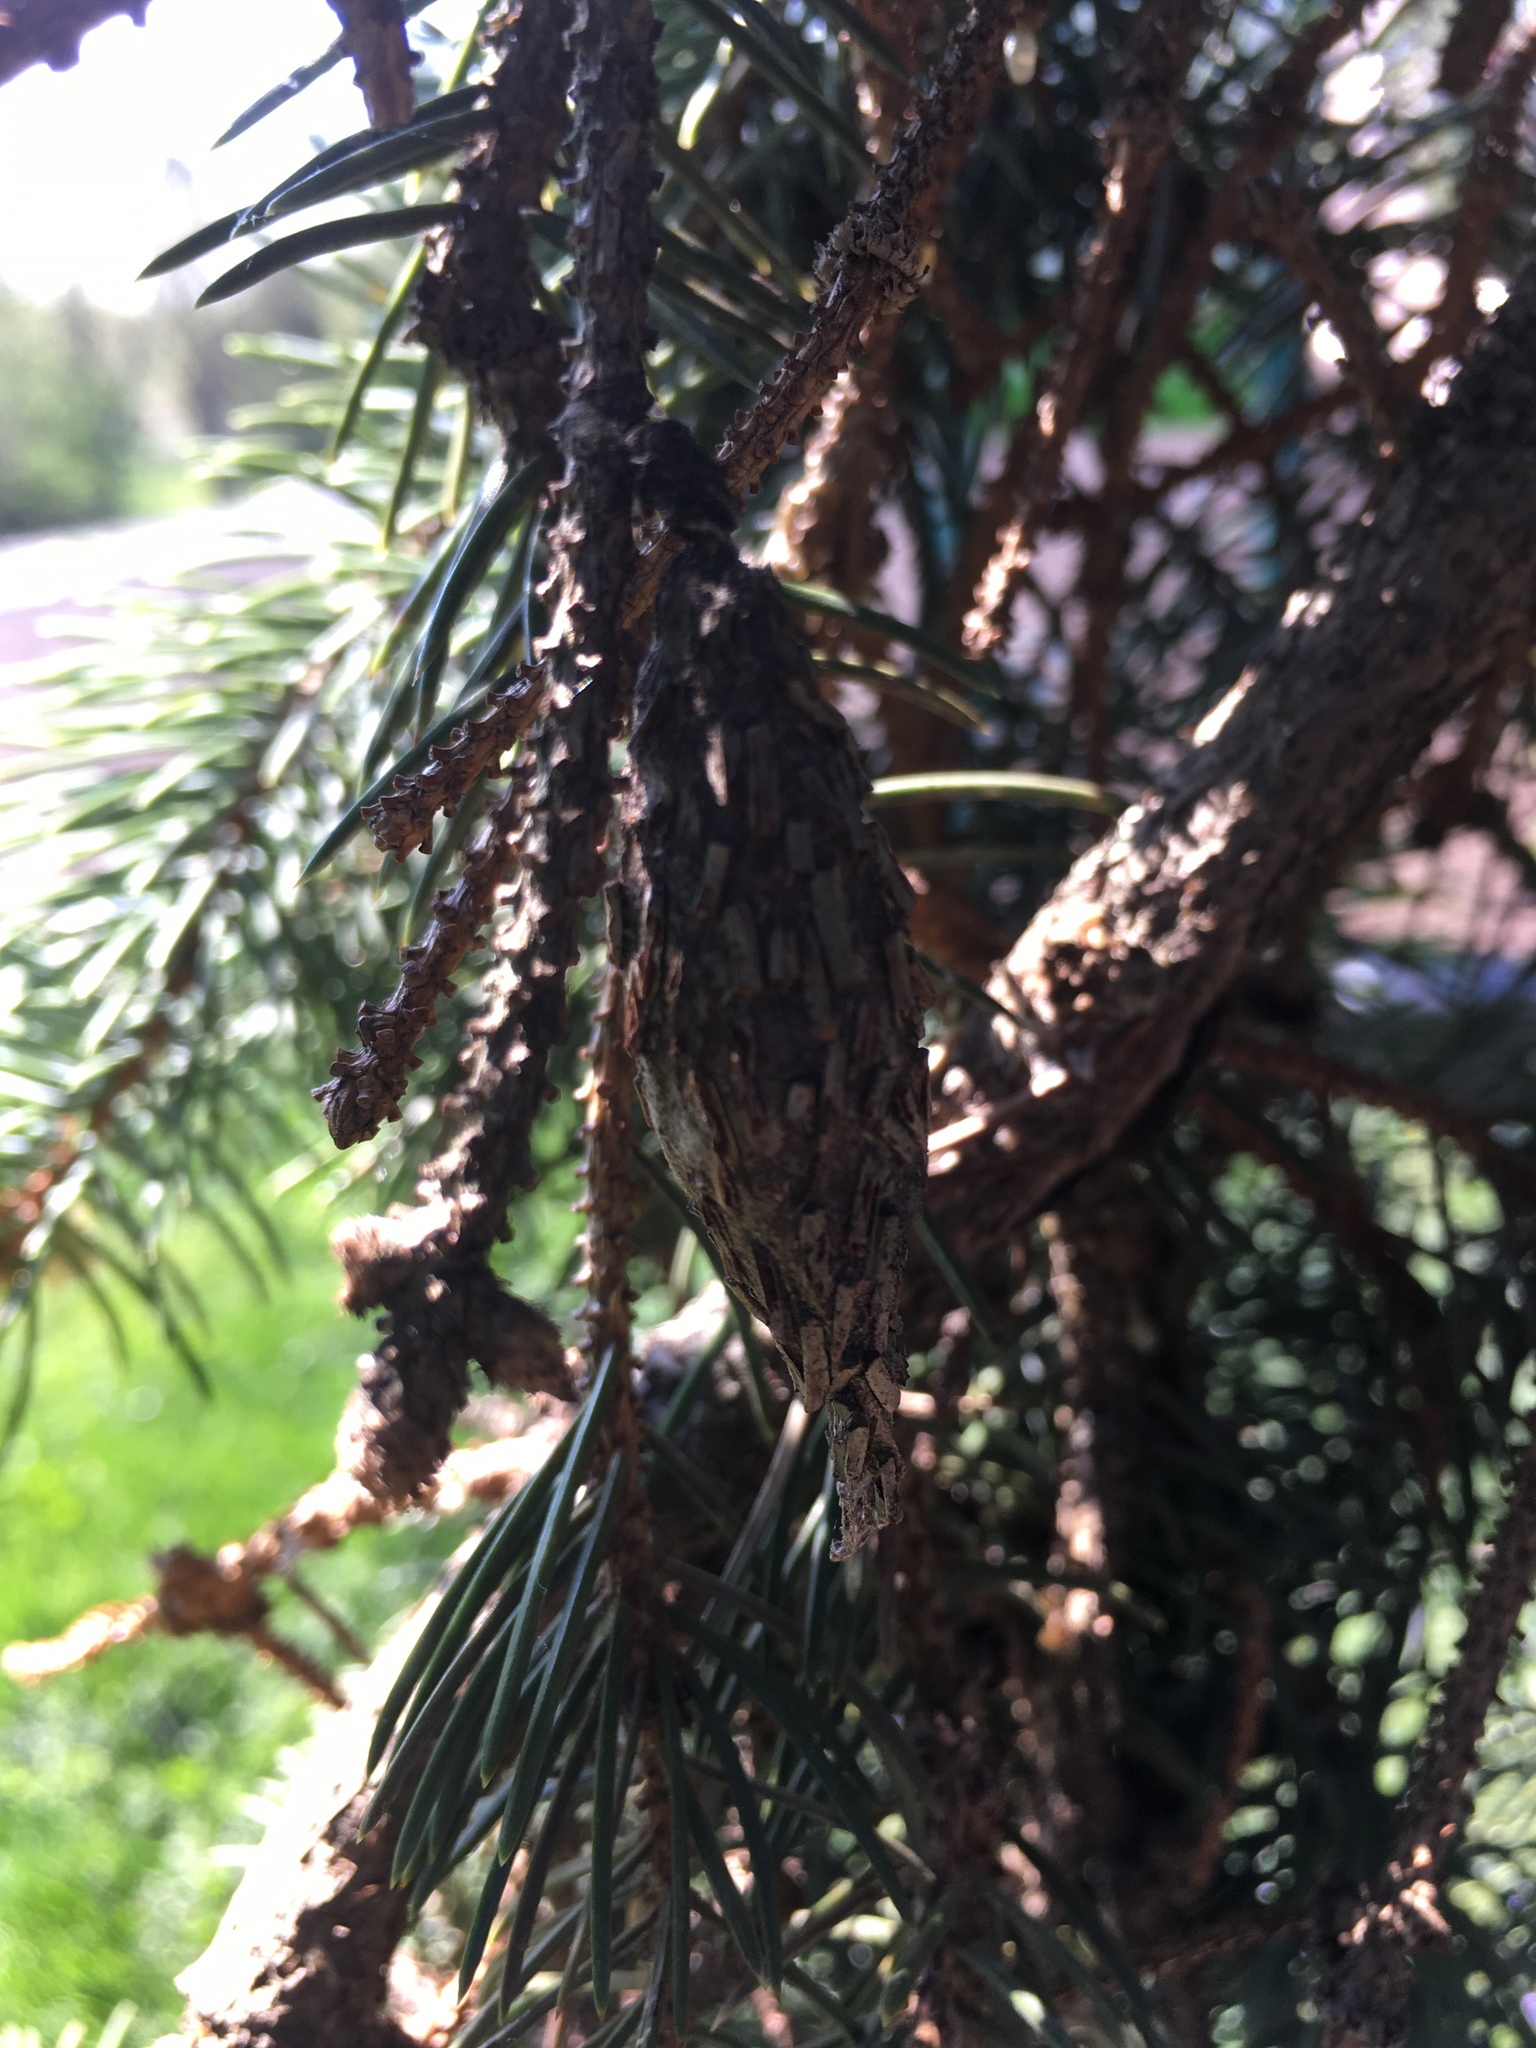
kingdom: Animalia
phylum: Arthropoda
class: Insecta
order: Lepidoptera
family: Psychidae
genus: Thyridopteryx
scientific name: Thyridopteryx ephemeraeformis
